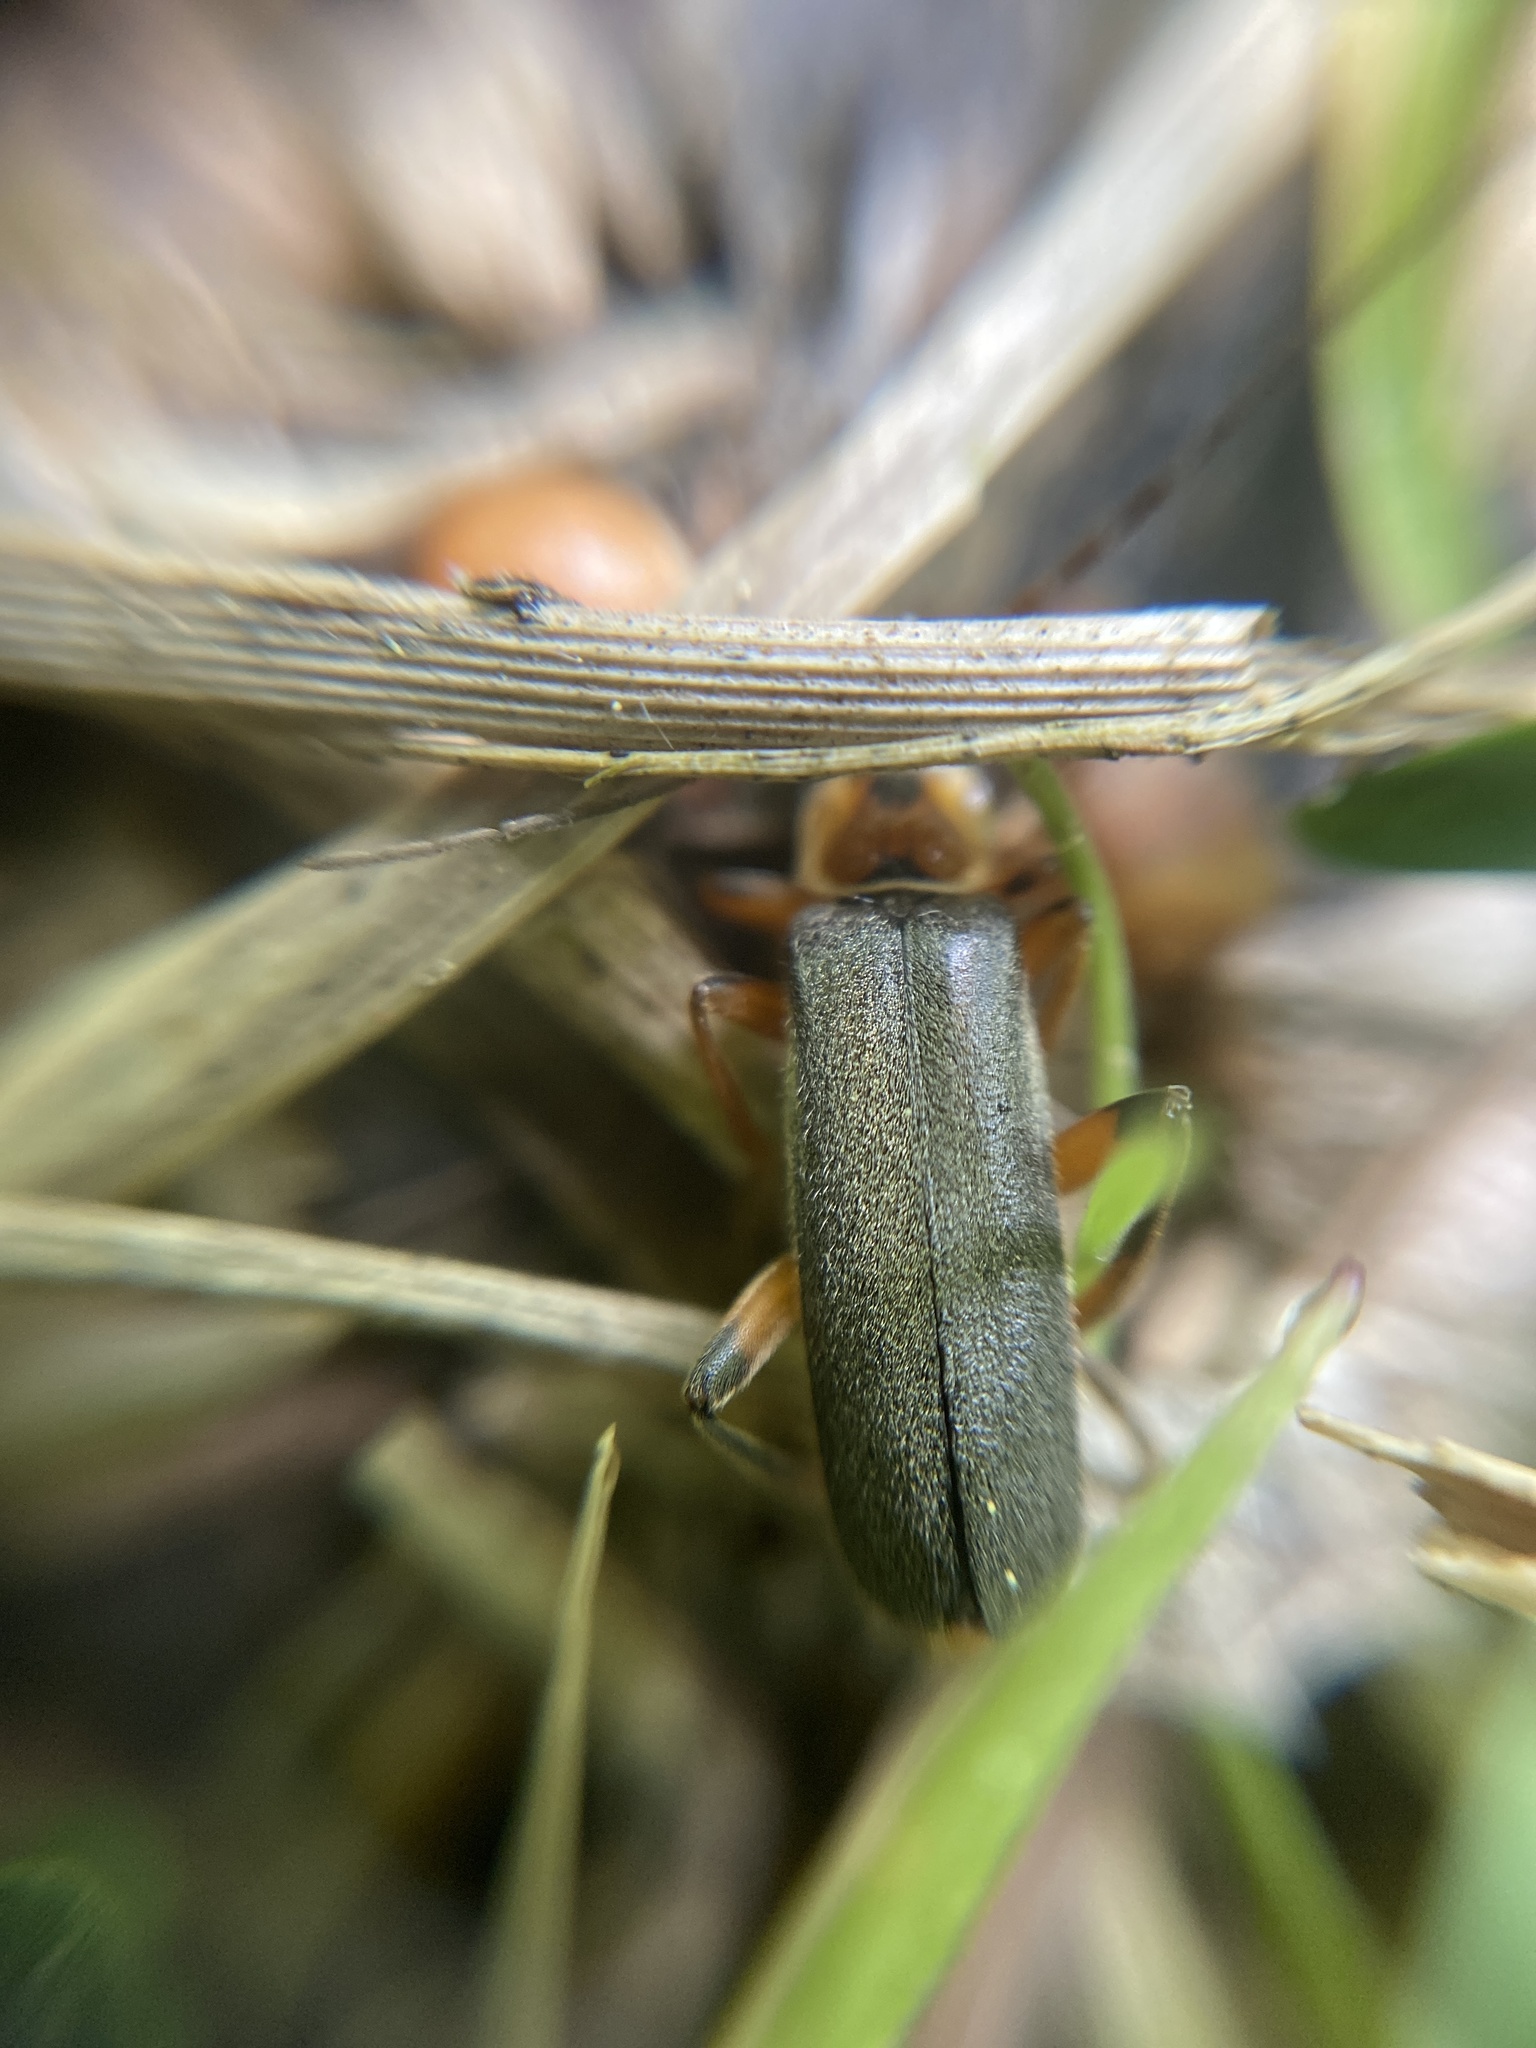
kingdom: Animalia
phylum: Arthropoda
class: Insecta
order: Coleoptera
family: Cantharidae
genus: Cantharis
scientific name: Cantharis nigricans
